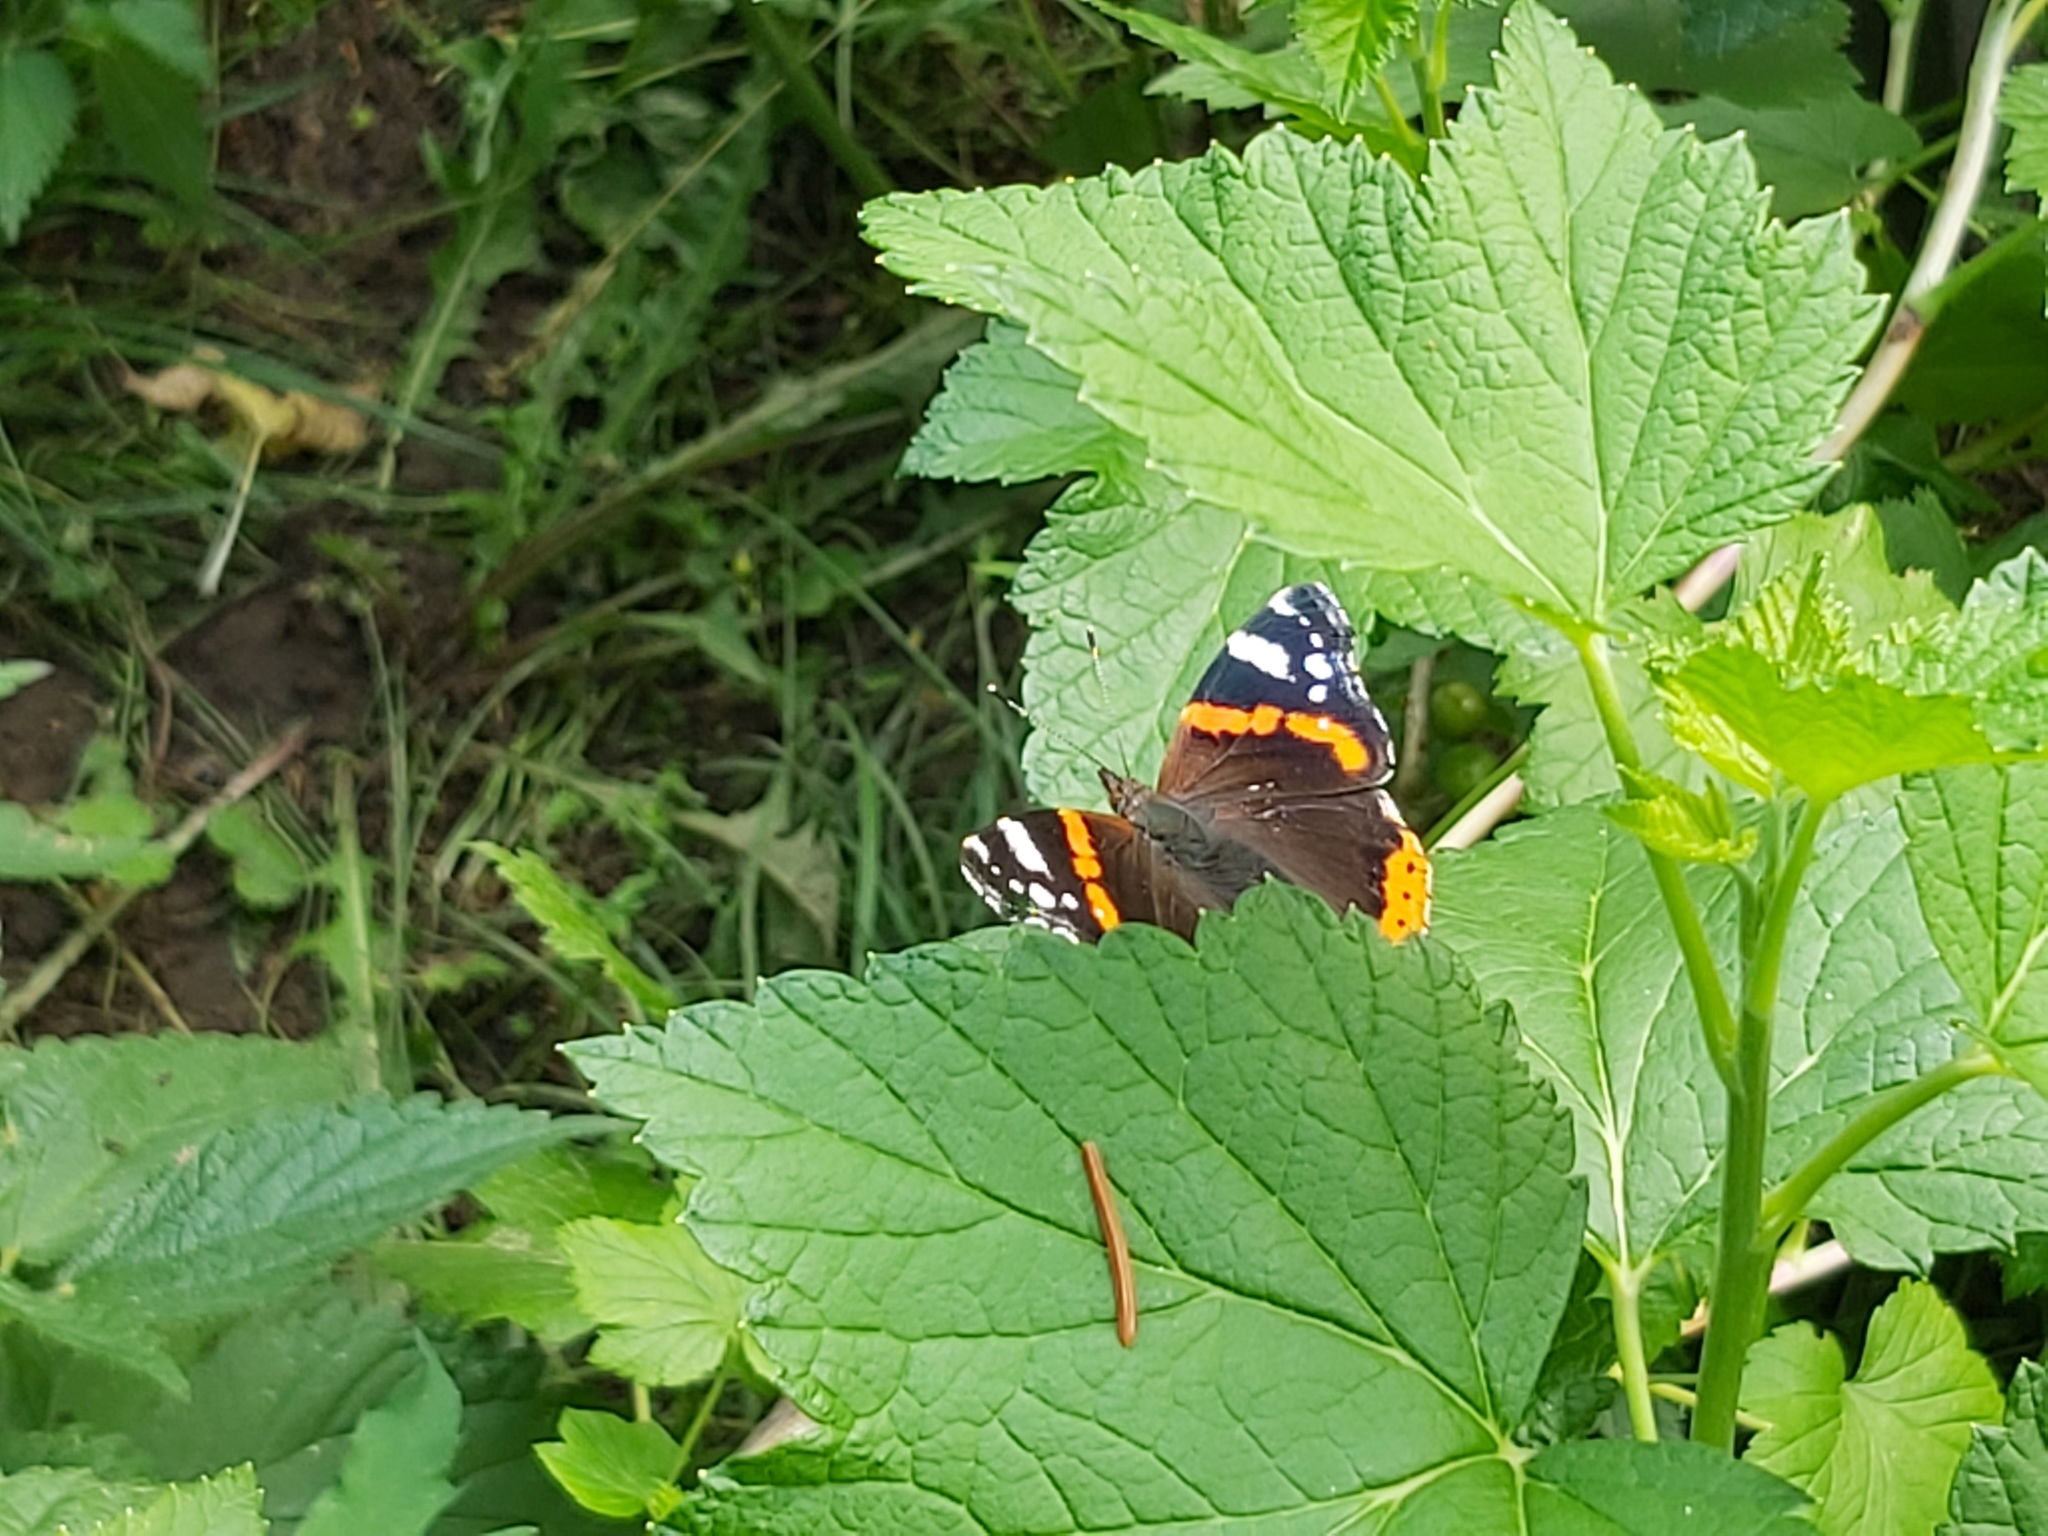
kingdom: Animalia
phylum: Arthropoda
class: Insecta
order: Lepidoptera
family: Nymphalidae
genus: Vanessa
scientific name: Vanessa atalanta
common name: Red admiral
